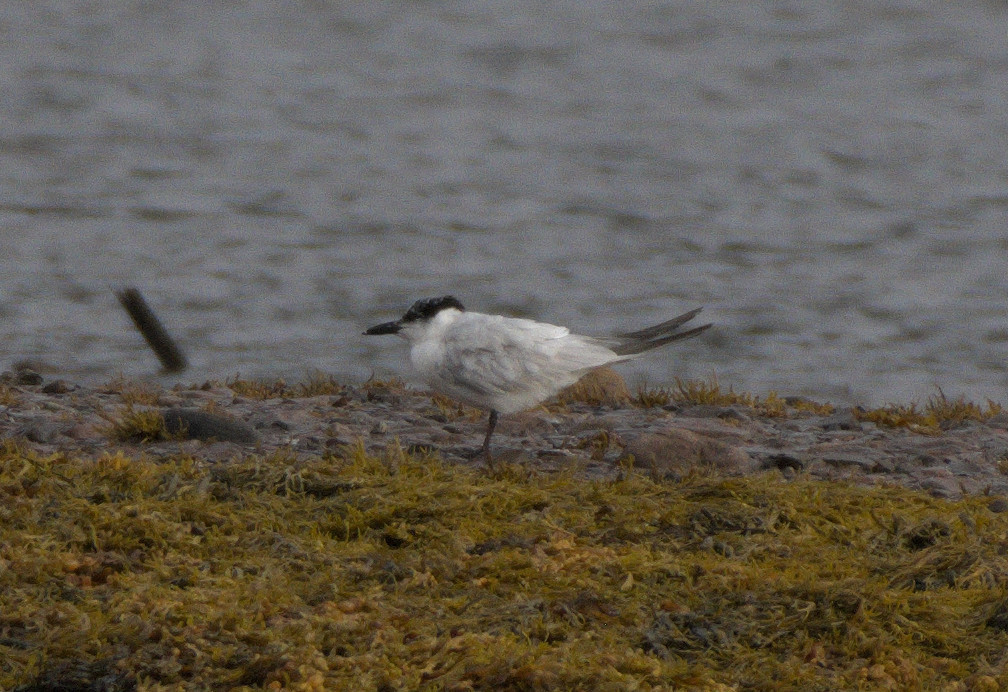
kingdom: Animalia
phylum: Chordata
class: Aves
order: Charadriiformes
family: Laridae
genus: Gelochelidon
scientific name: Gelochelidon nilotica
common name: Gull-billed tern
